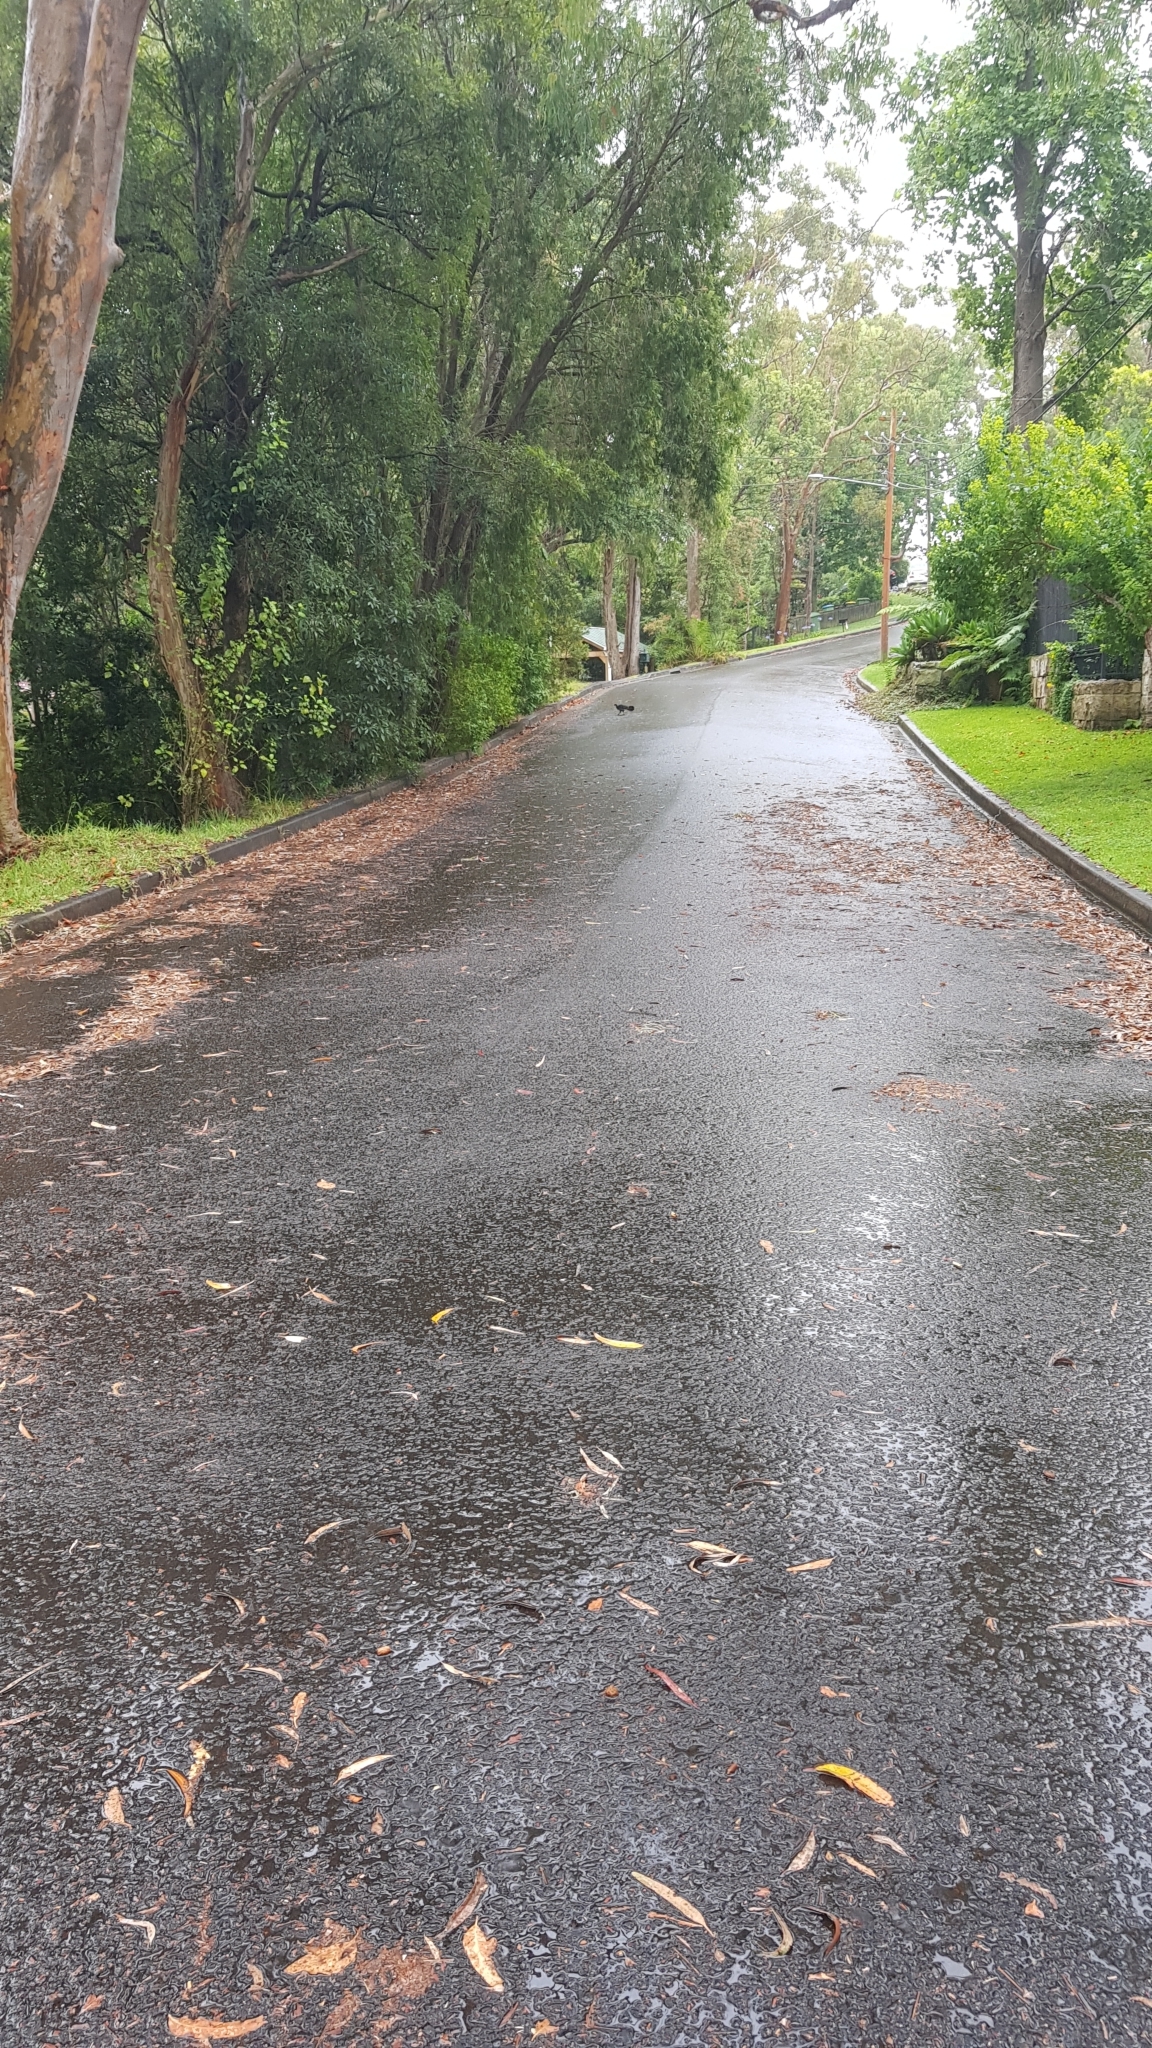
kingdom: Animalia
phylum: Chordata
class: Aves
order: Galliformes
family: Megapodiidae
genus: Alectura
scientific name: Alectura lathami
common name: Australian brushturkey
